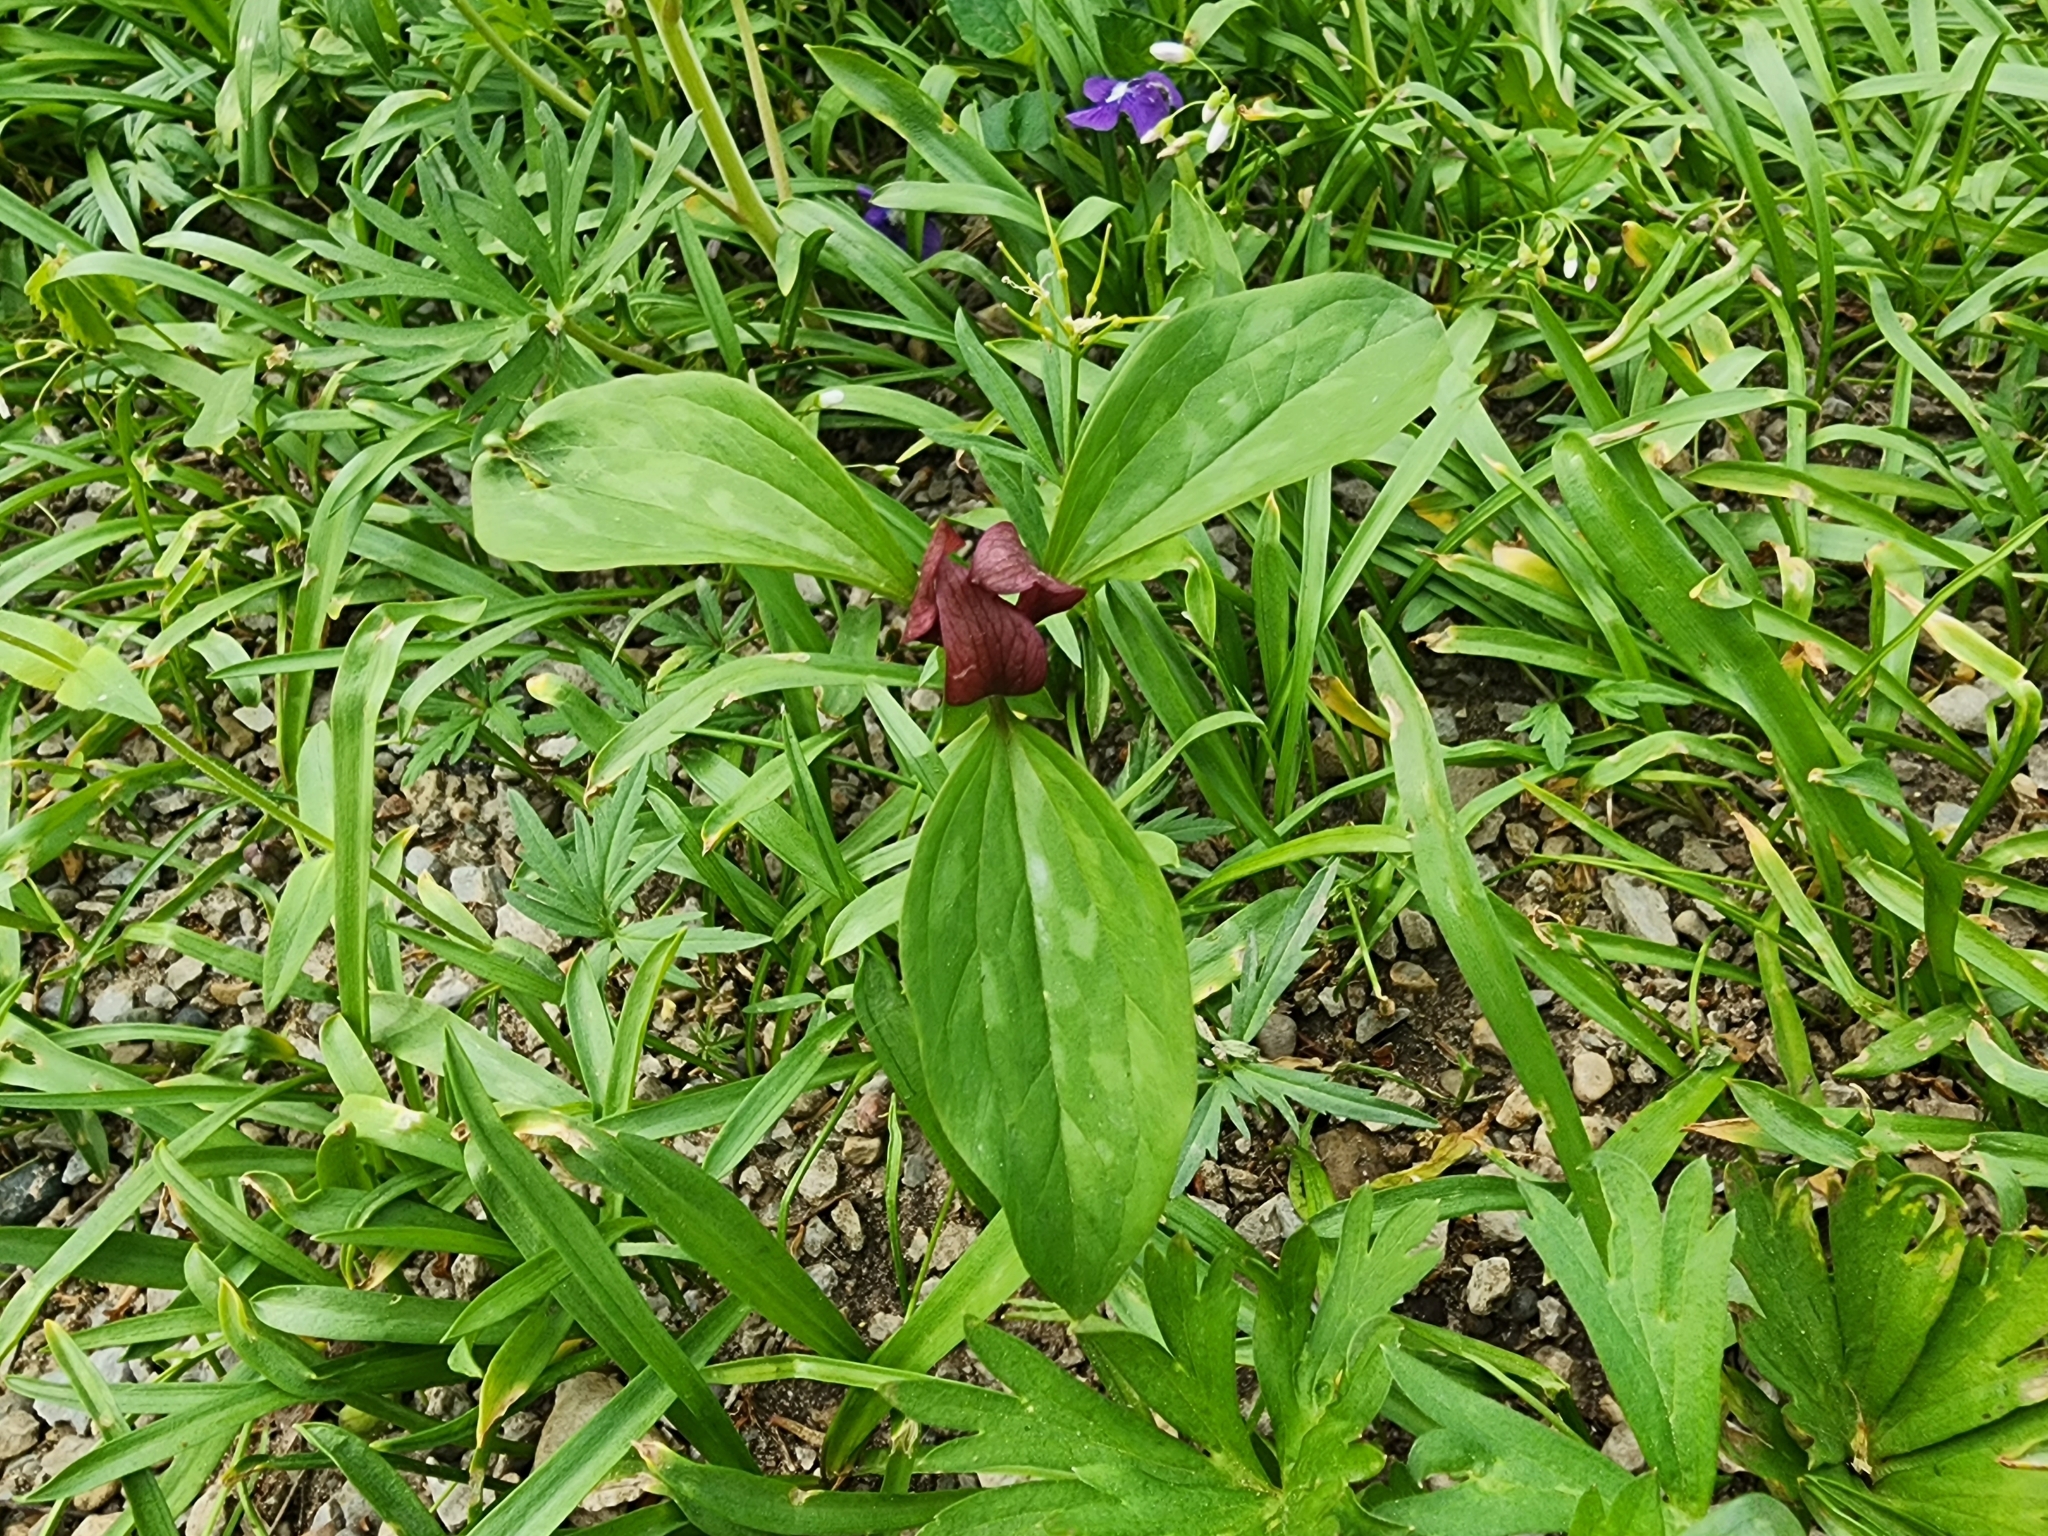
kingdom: Plantae
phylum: Tracheophyta
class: Liliopsida
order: Liliales
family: Melanthiaceae
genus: Trillium
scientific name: Trillium recurvatum
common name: Bloody butcher
